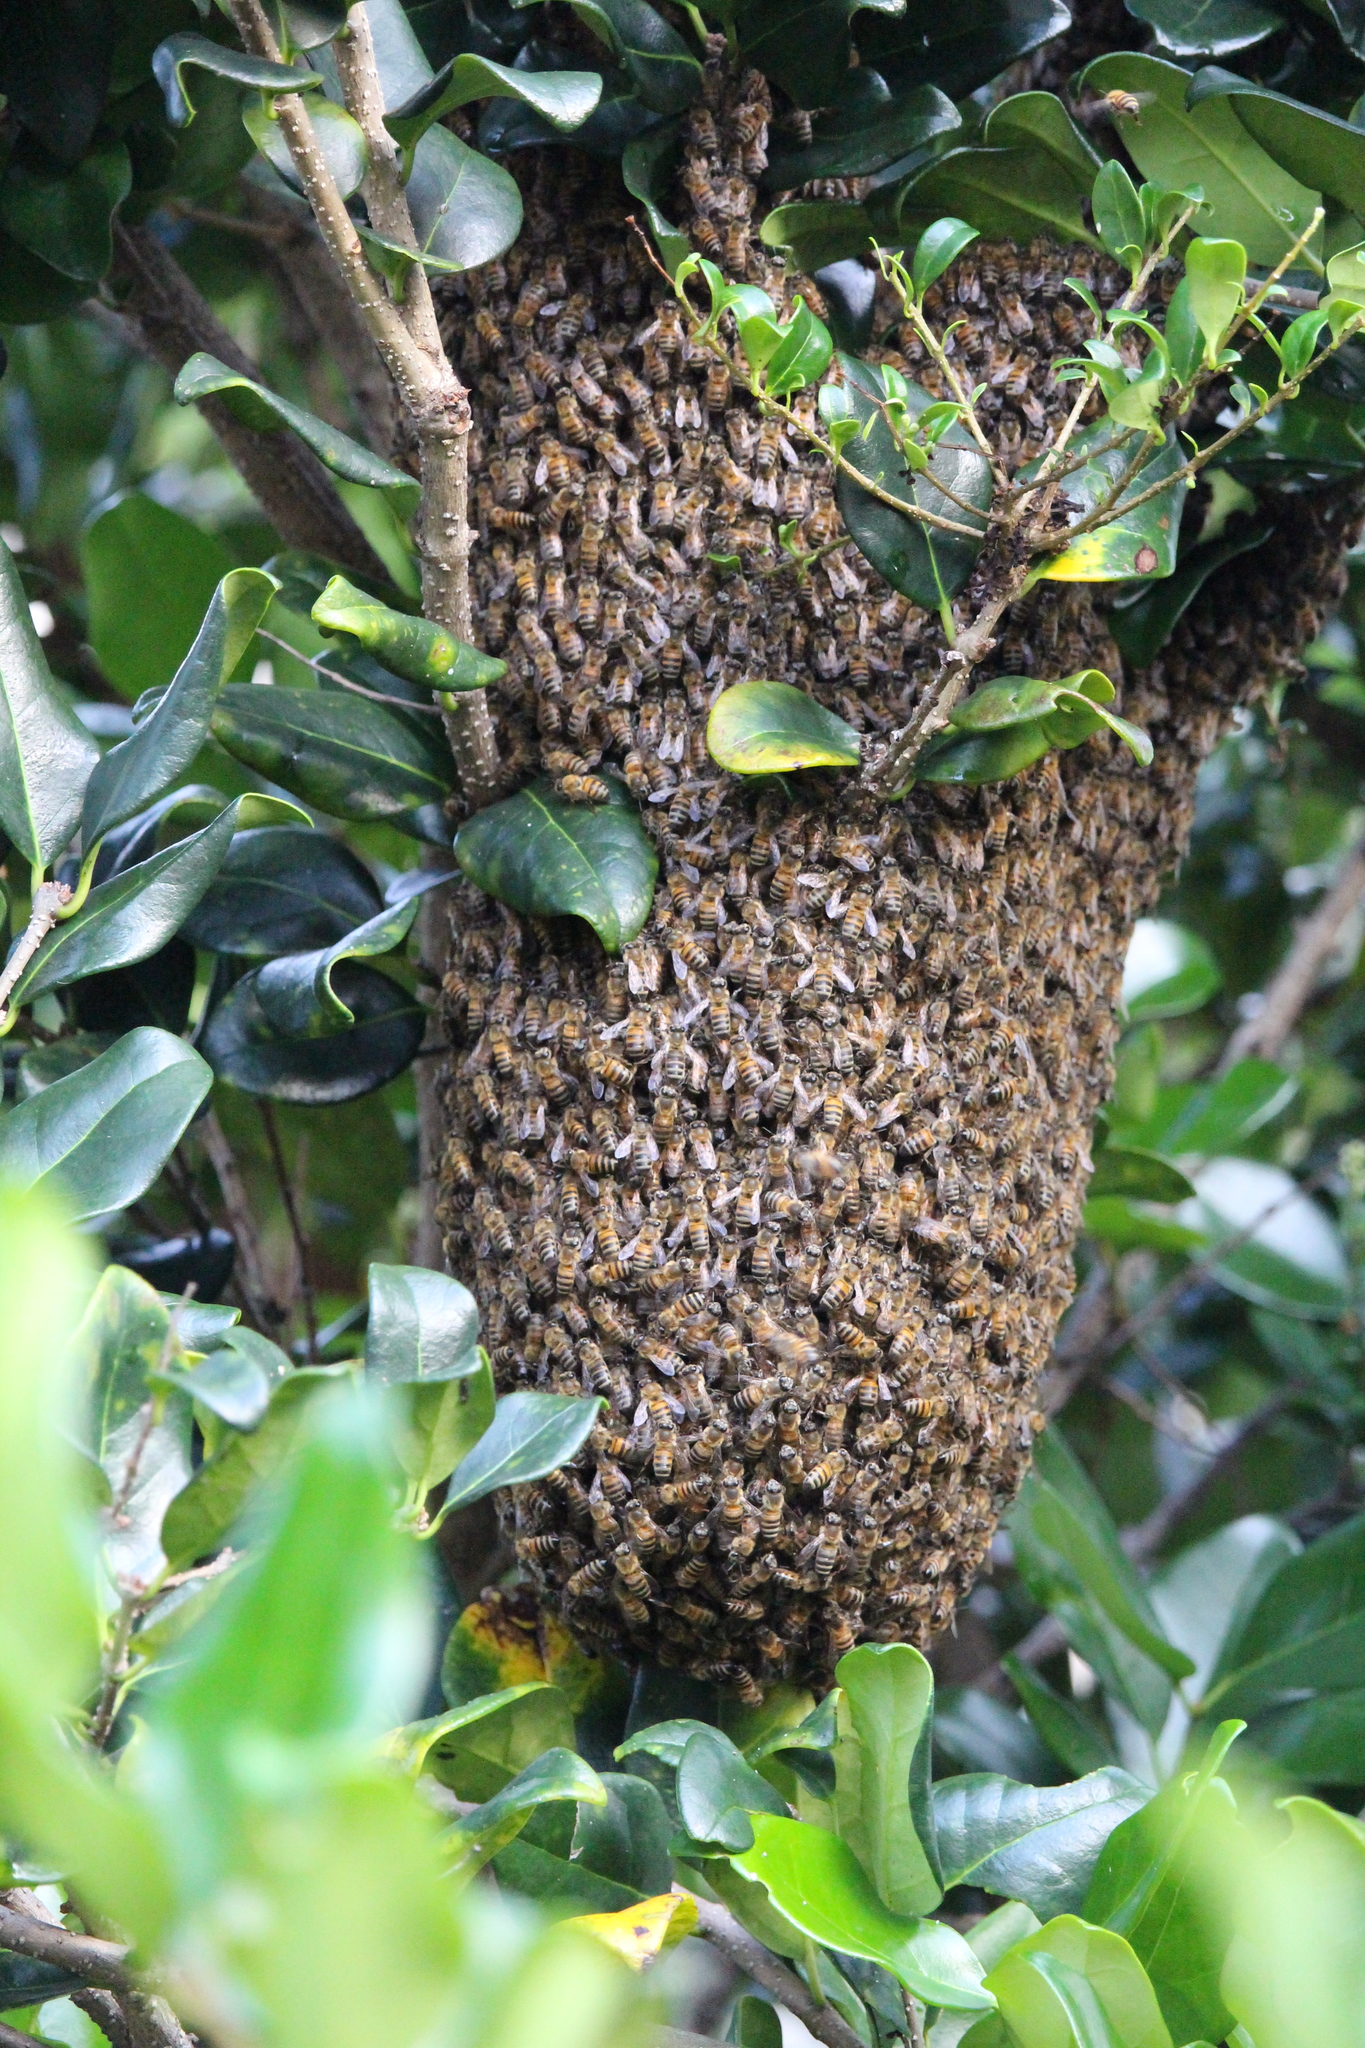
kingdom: Animalia
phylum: Arthropoda
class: Insecta
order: Hymenoptera
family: Apidae
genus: Apis
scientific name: Apis mellifera
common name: Honey bee
